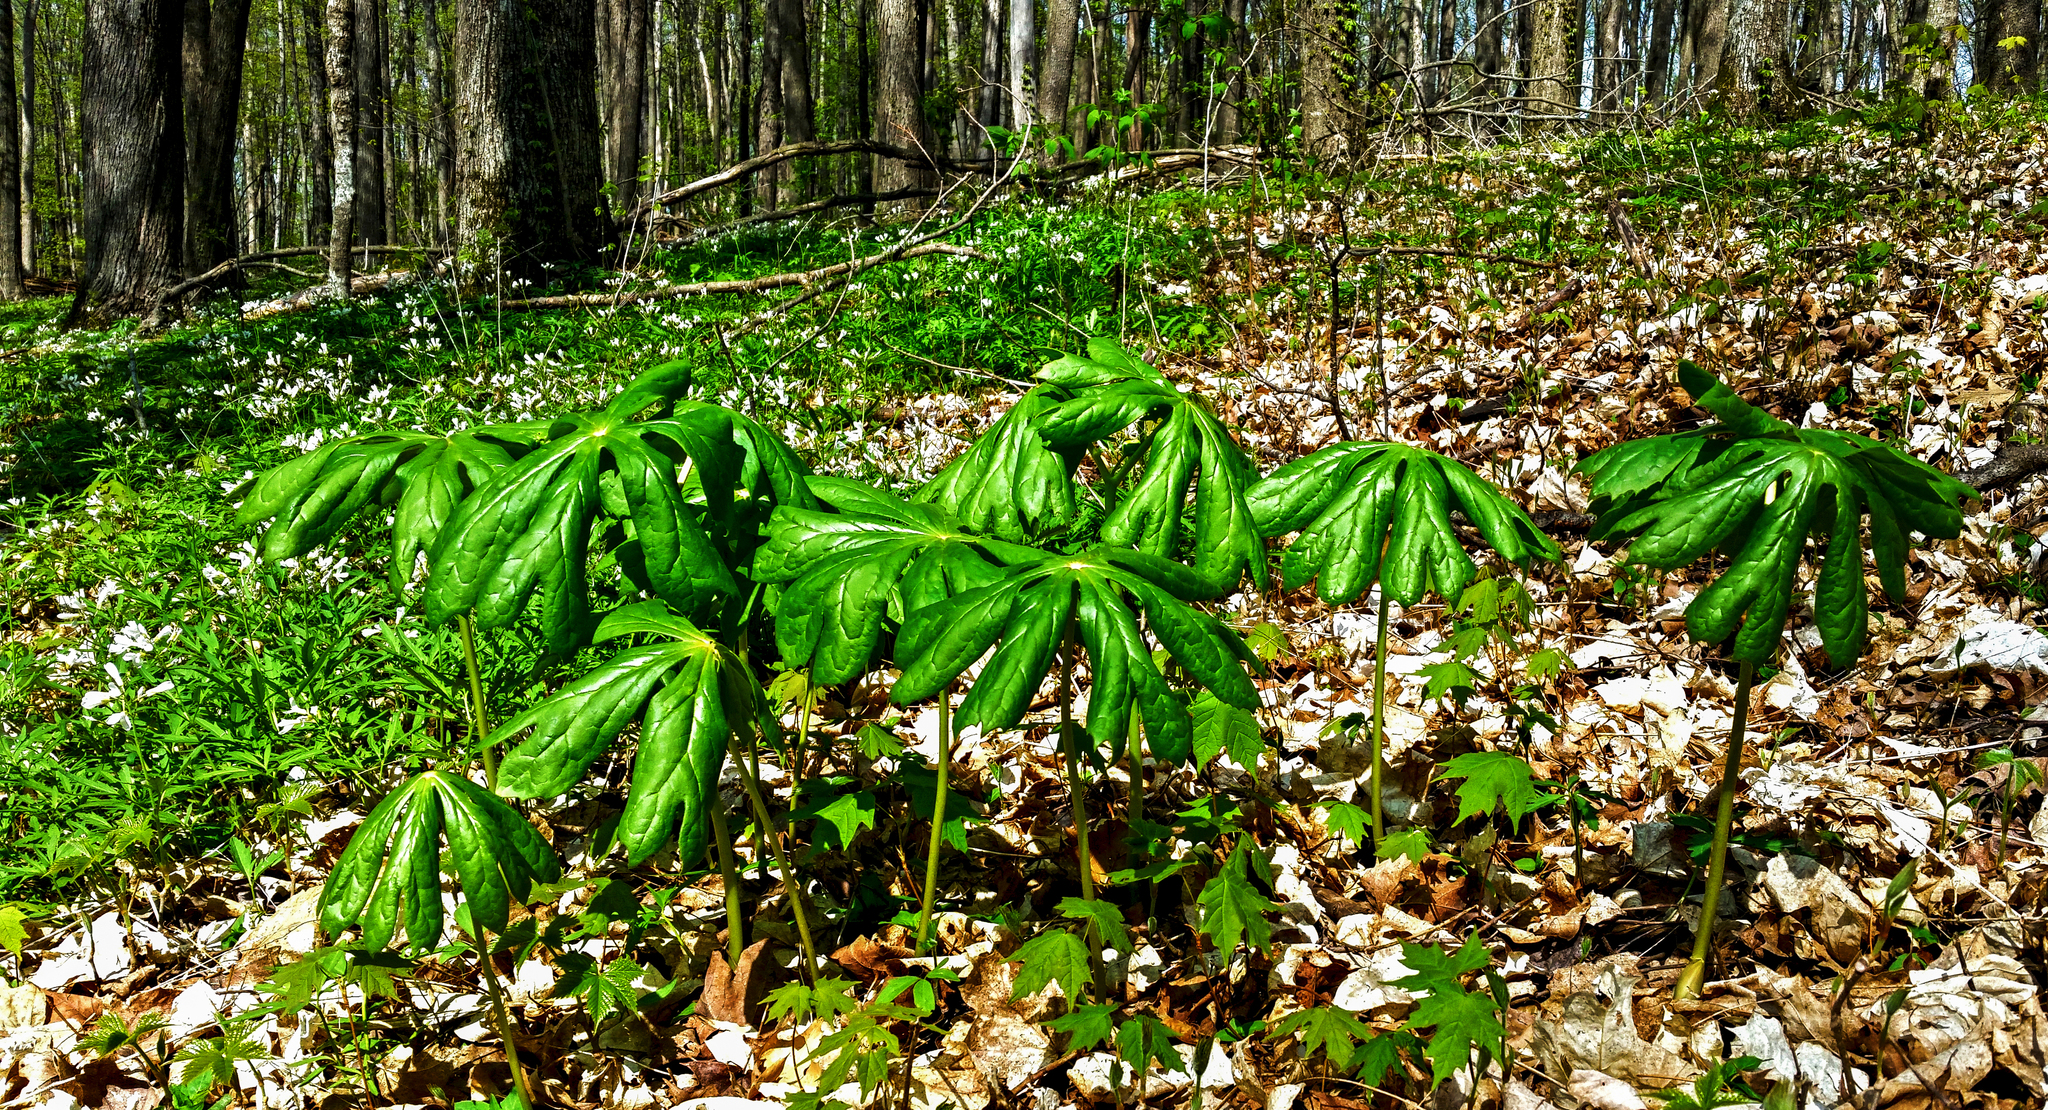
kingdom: Plantae
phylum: Tracheophyta
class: Magnoliopsida
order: Ranunculales
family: Berberidaceae
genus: Podophyllum
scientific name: Podophyllum peltatum
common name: Wild mandrake
